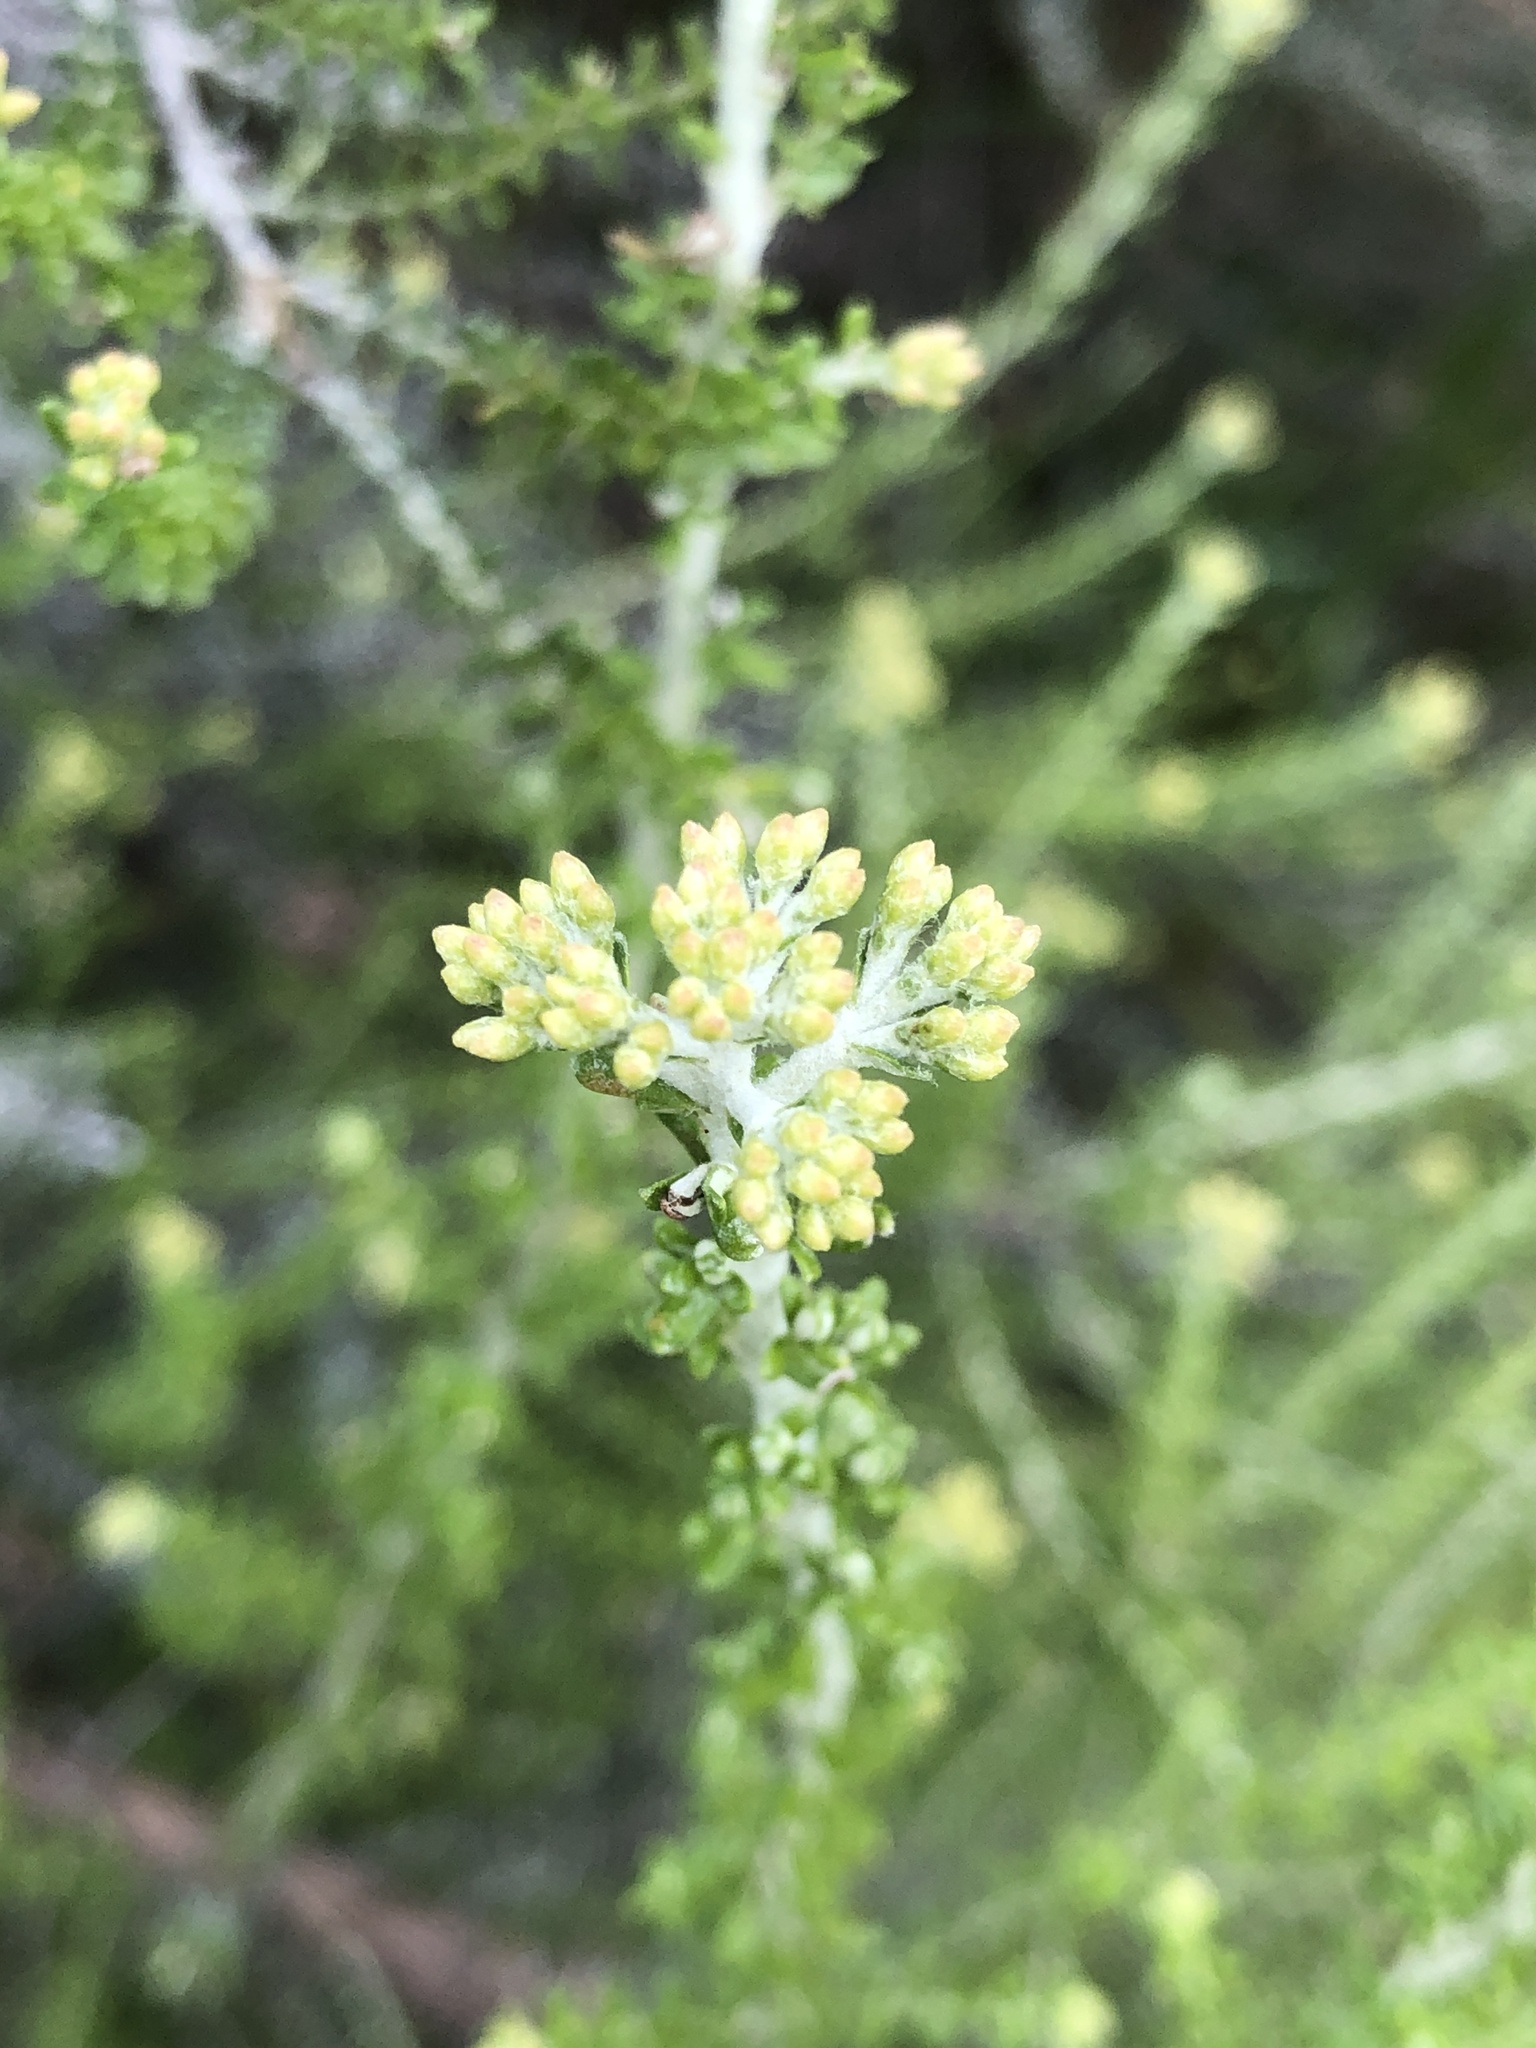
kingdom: Plantae
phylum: Tracheophyta
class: Magnoliopsida
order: Asterales
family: Asteraceae
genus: Ozothamnus
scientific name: Ozothamnus leptophyllus
